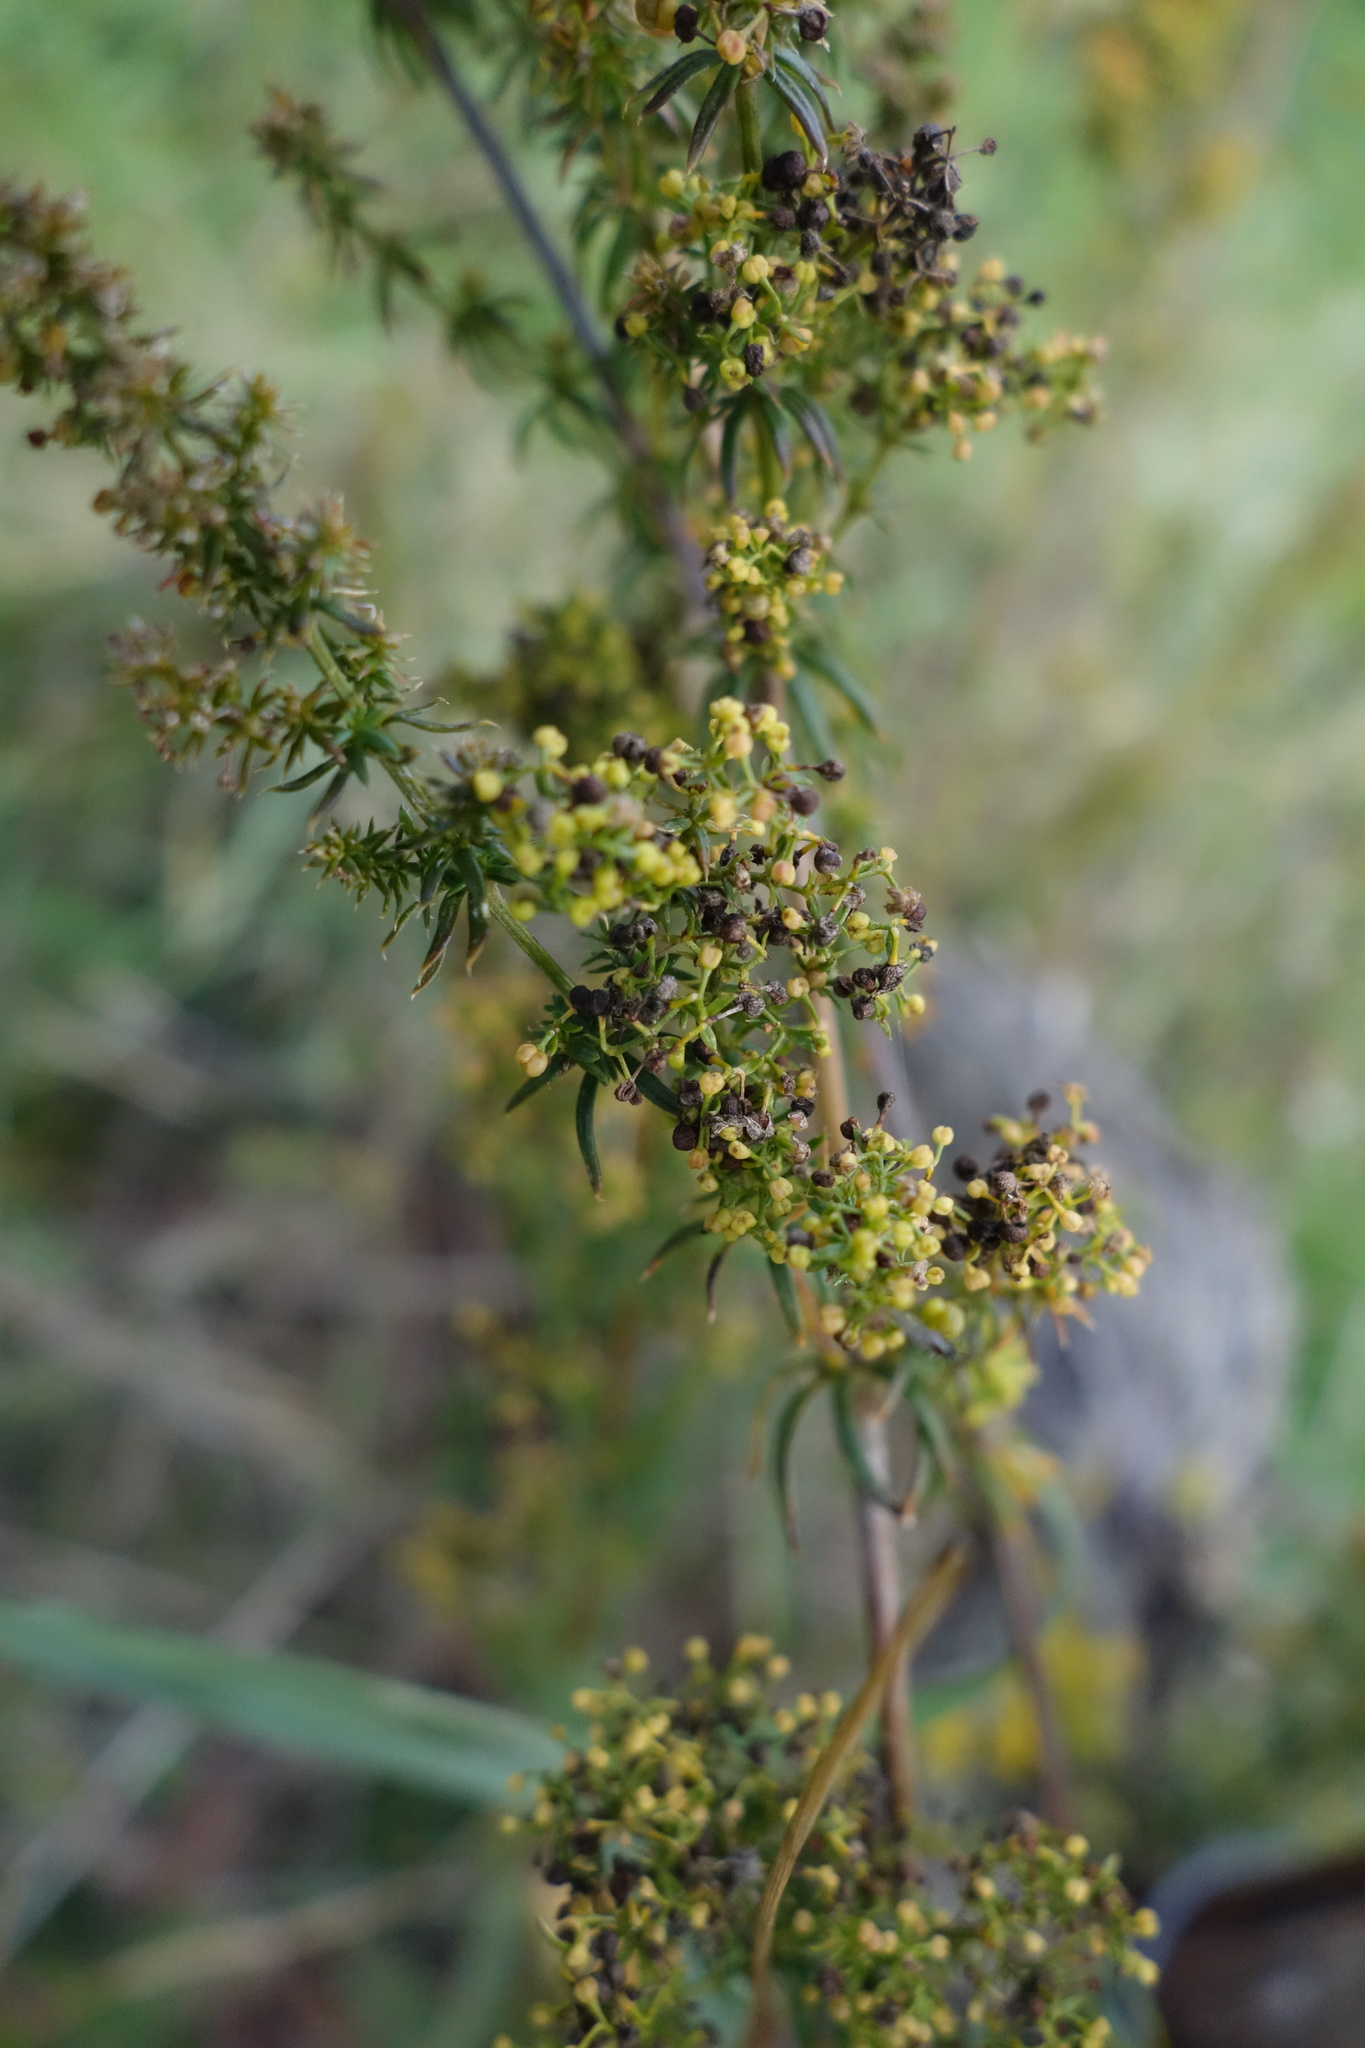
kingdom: Plantae
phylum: Tracheophyta
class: Magnoliopsida
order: Gentianales
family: Rubiaceae
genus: Galium
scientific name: Galium verum
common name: Lady's bedstraw
